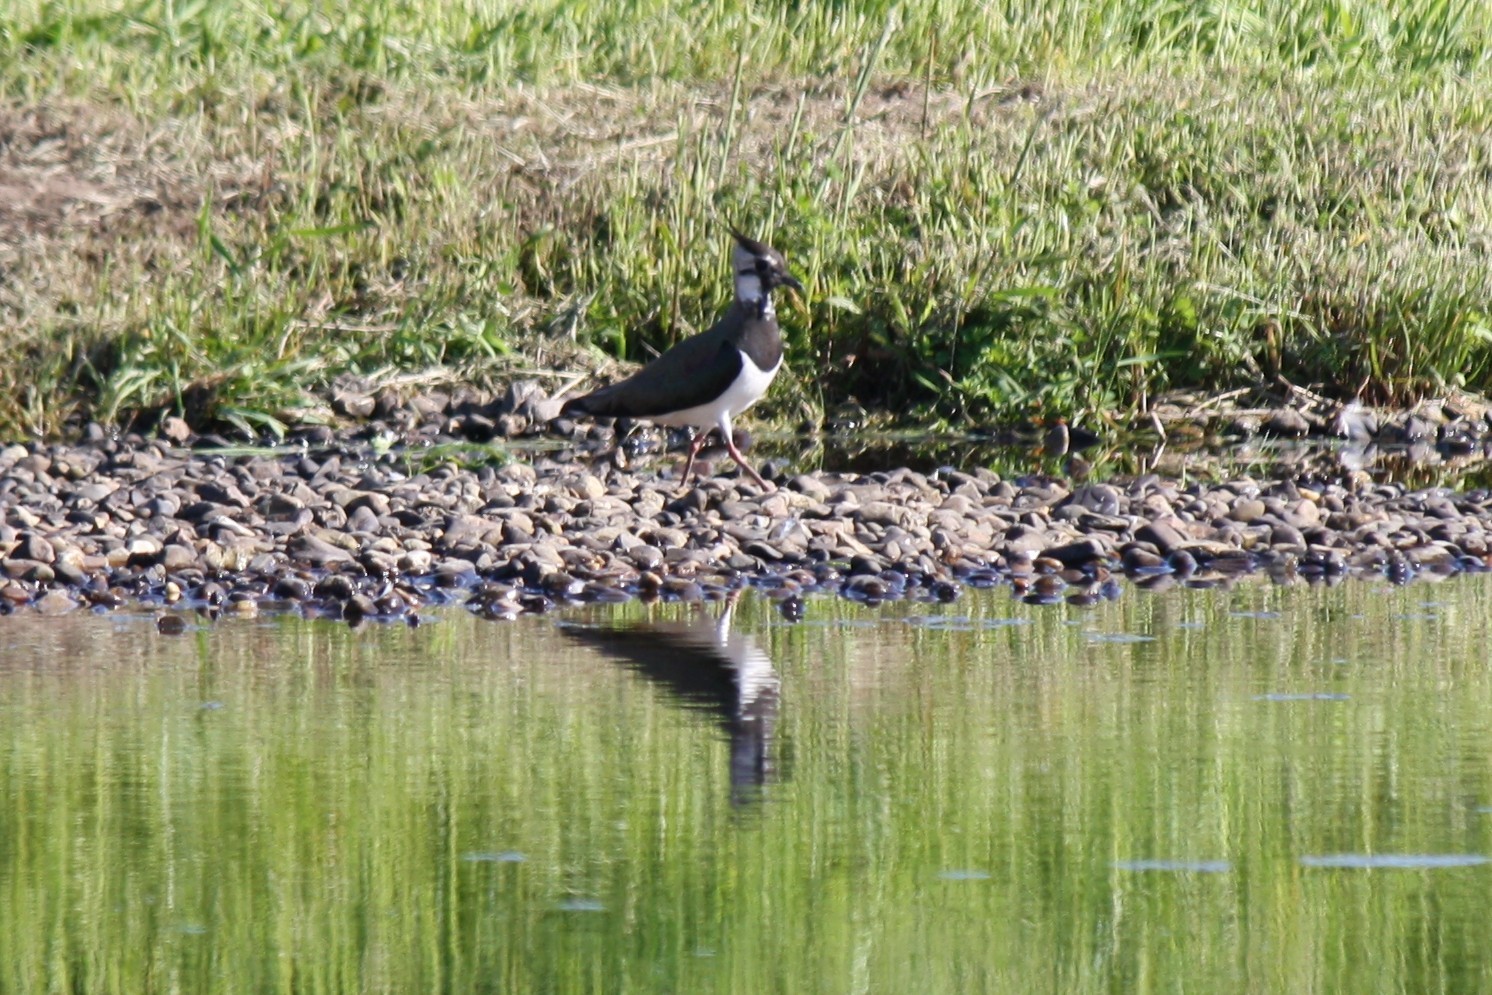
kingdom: Animalia
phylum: Chordata
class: Aves
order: Charadriiformes
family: Charadriidae
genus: Vanellus
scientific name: Vanellus vanellus
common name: Northern lapwing
